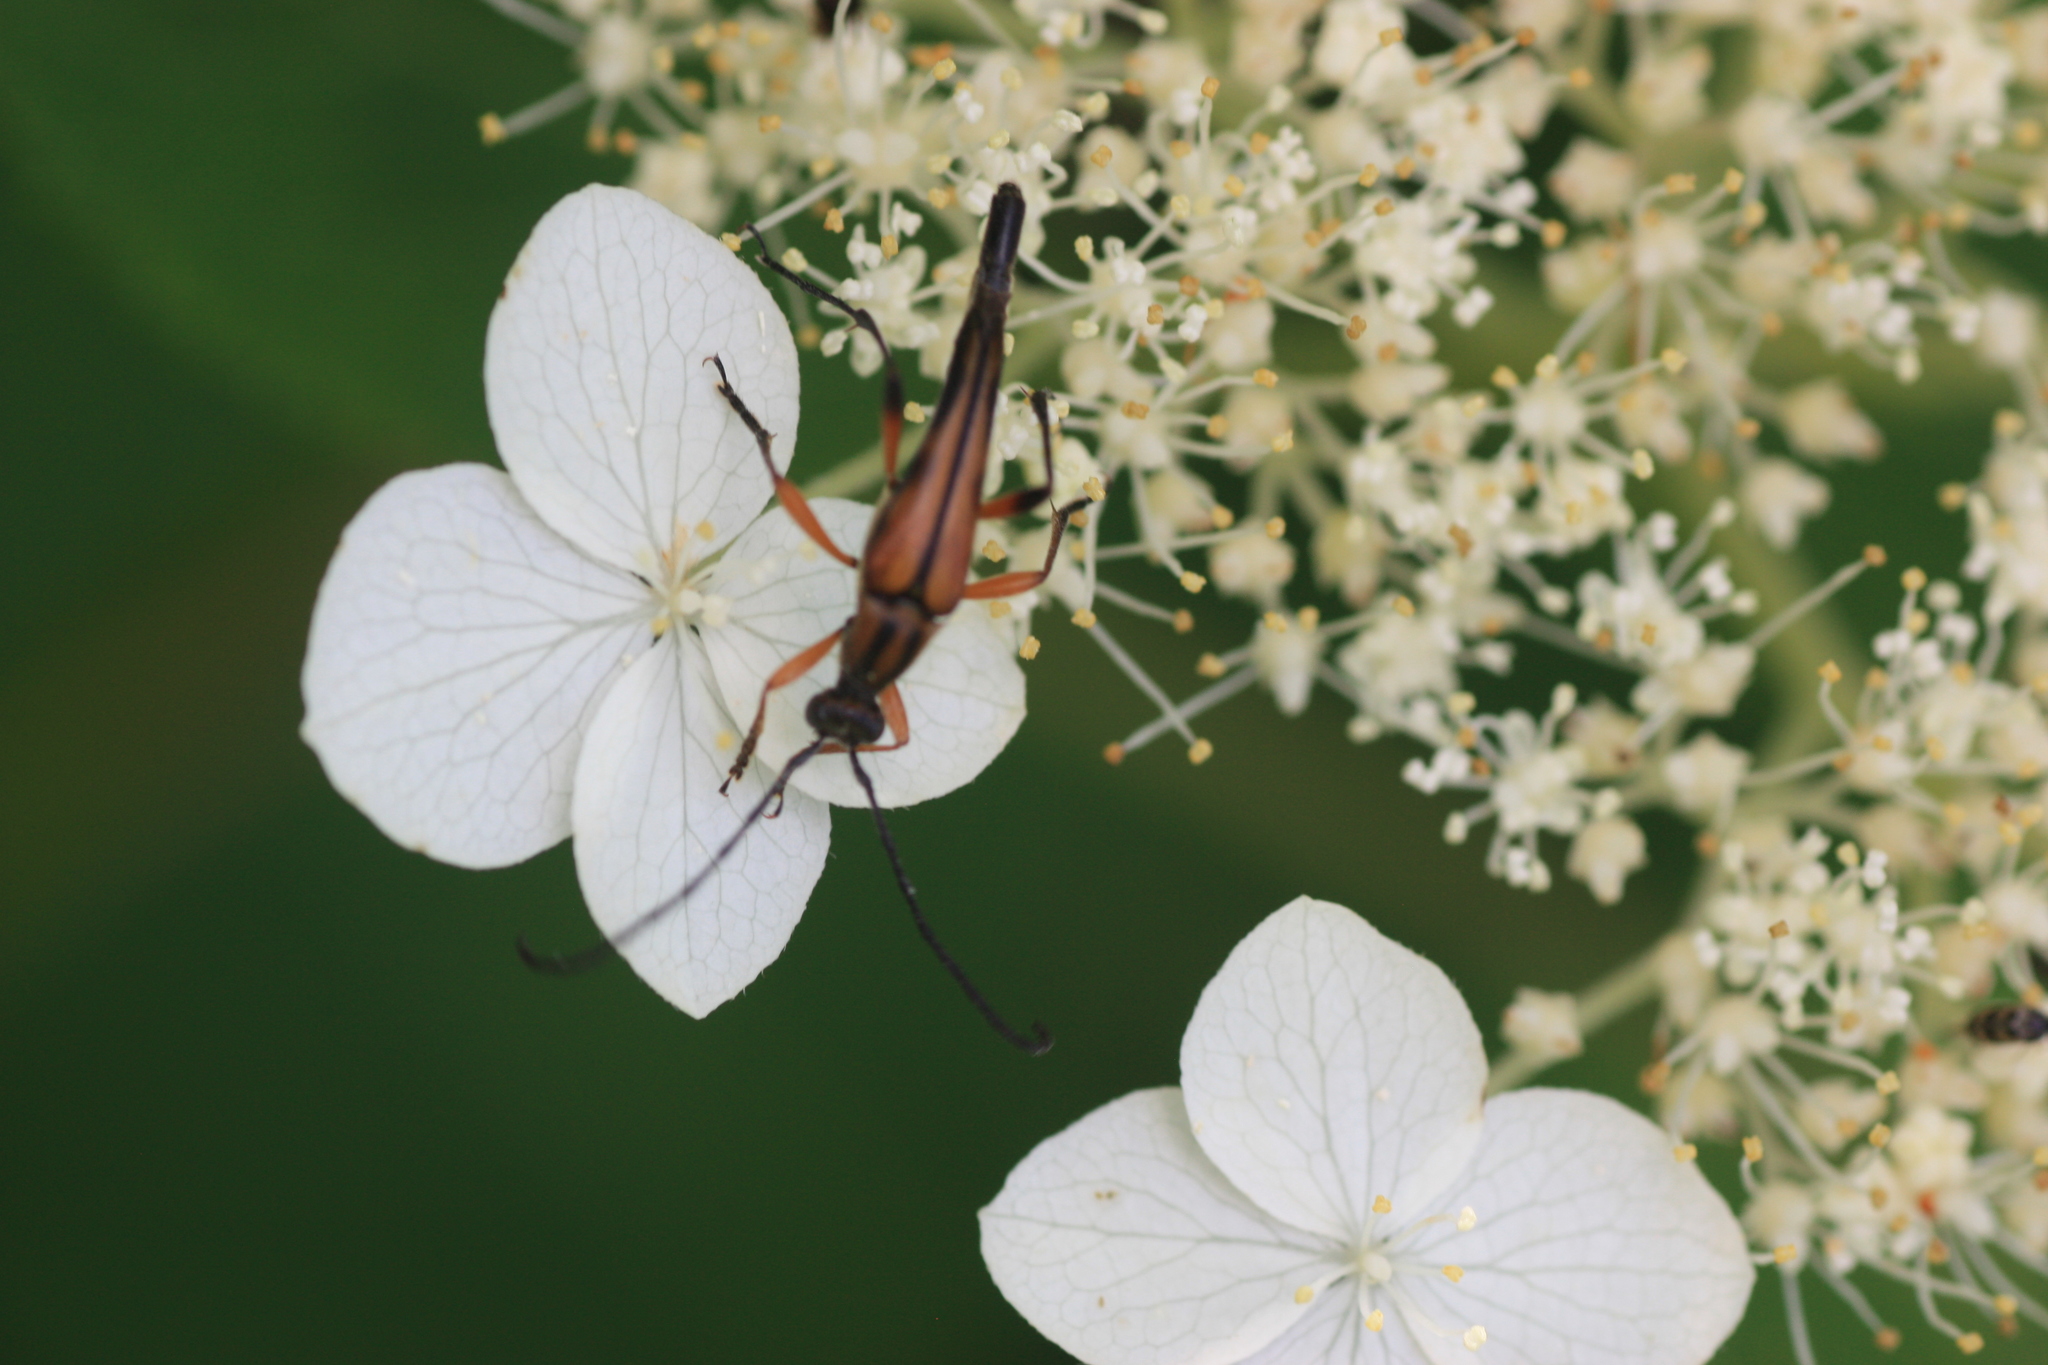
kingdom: Animalia
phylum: Arthropoda
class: Insecta
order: Coleoptera
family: Cerambycidae
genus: Strangalia
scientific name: Strangalia famelica
